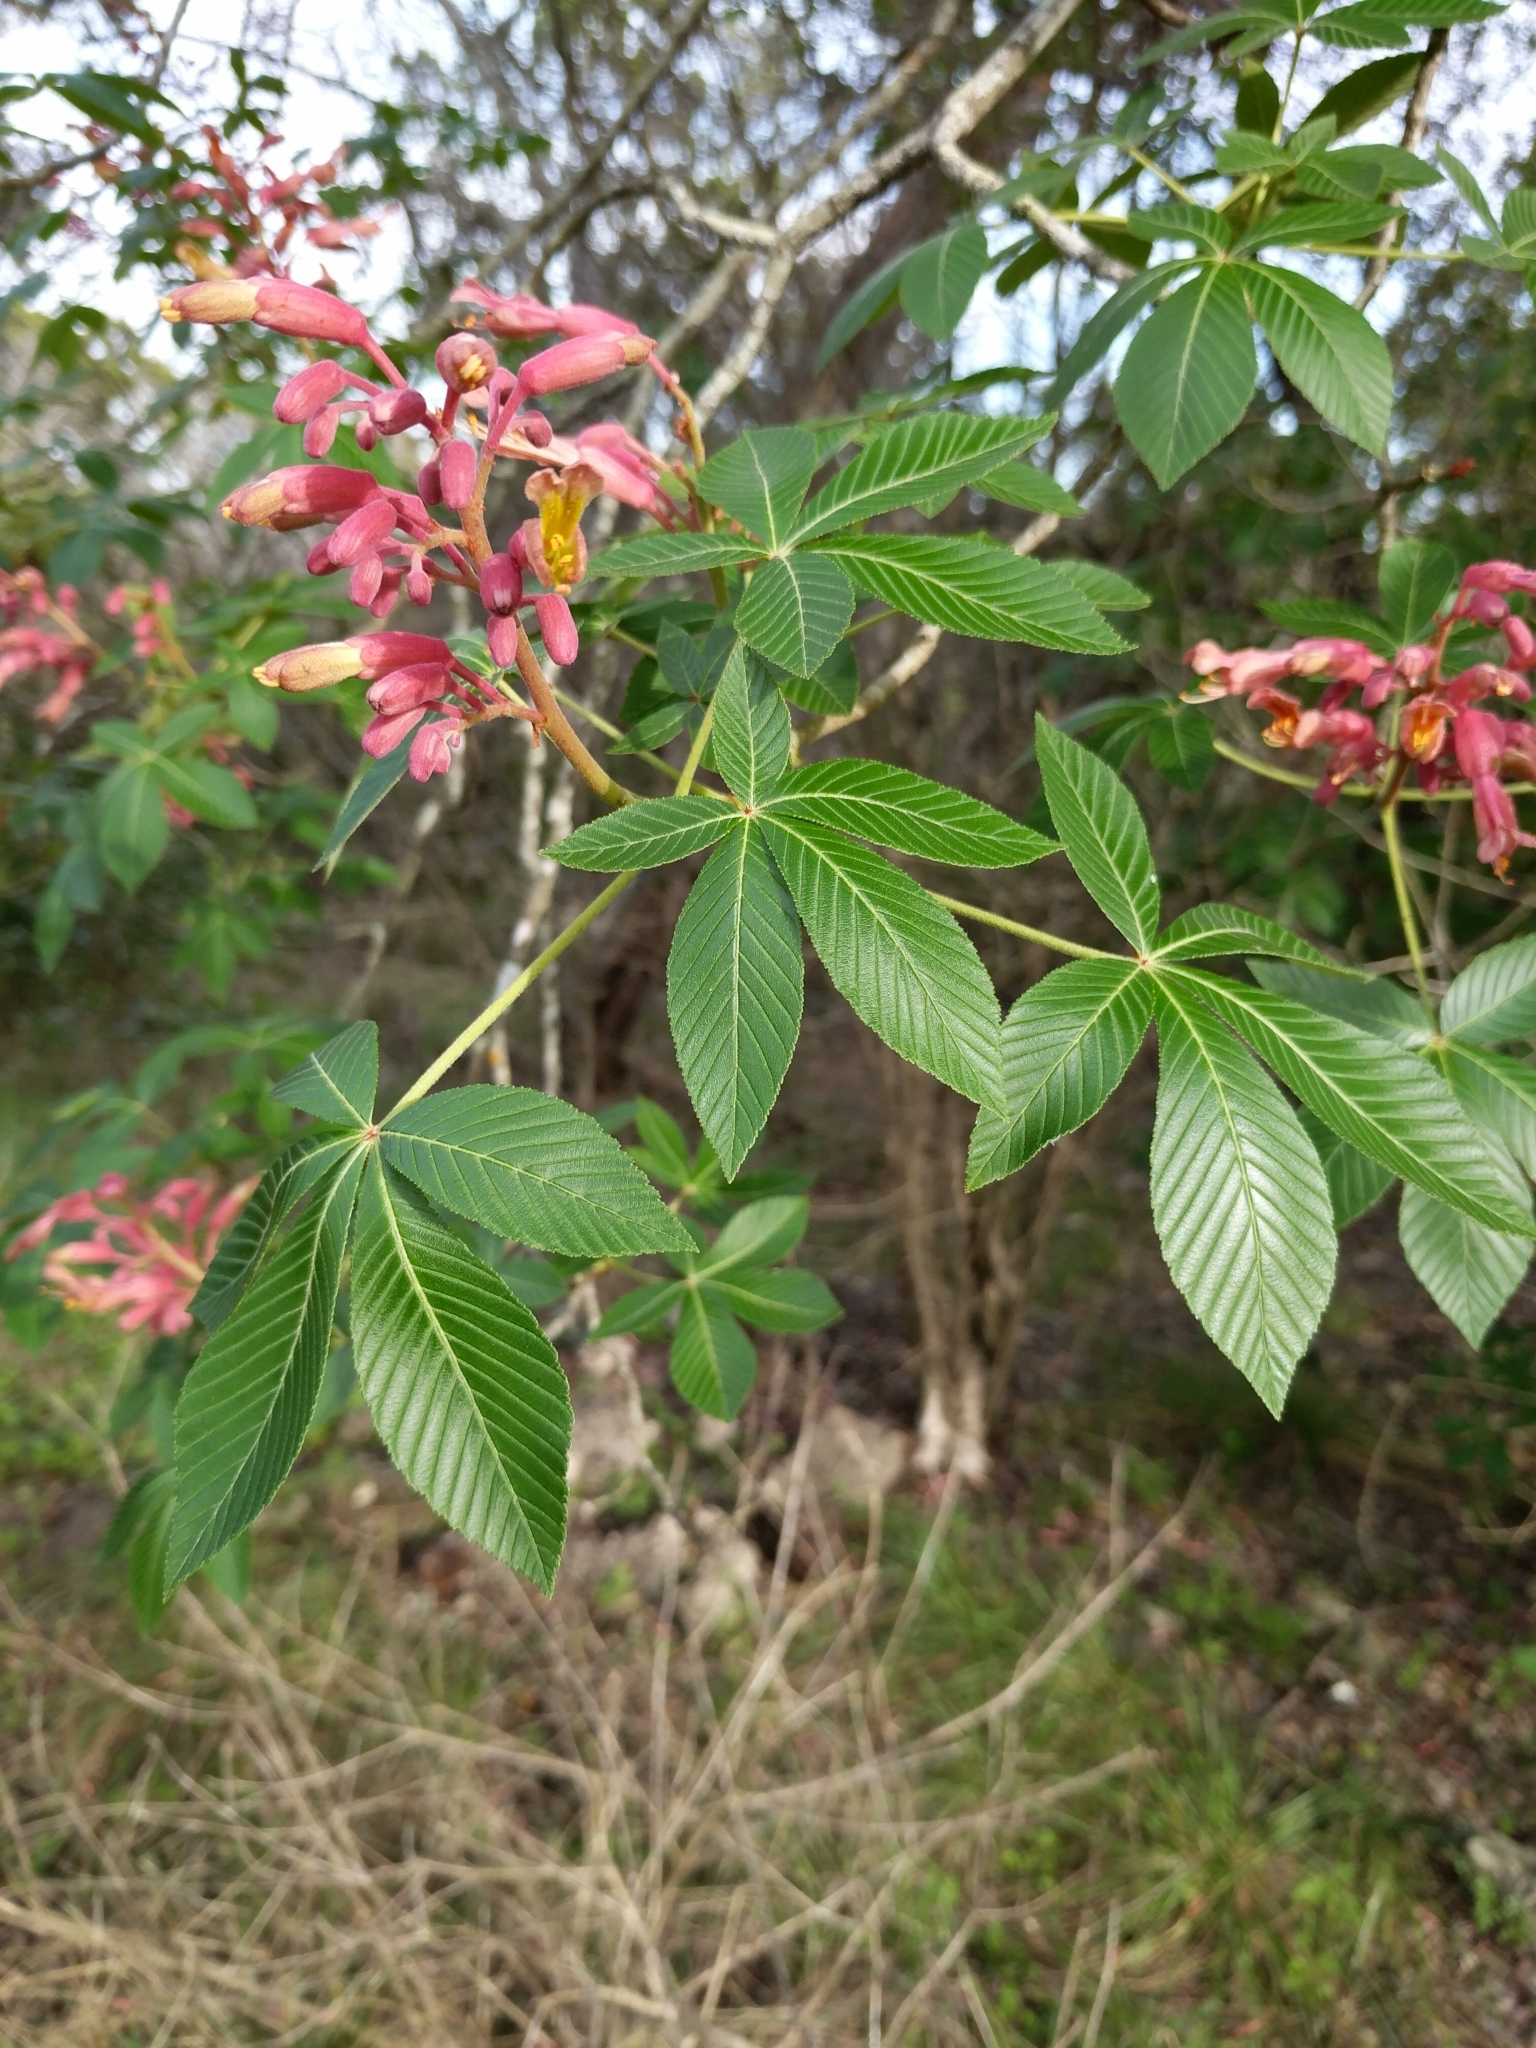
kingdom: Plantae
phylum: Tracheophyta
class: Magnoliopsida
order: Sapindales
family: Sapindaceae
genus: Aesculus
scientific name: Aesculus pavia
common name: Red buckeye
